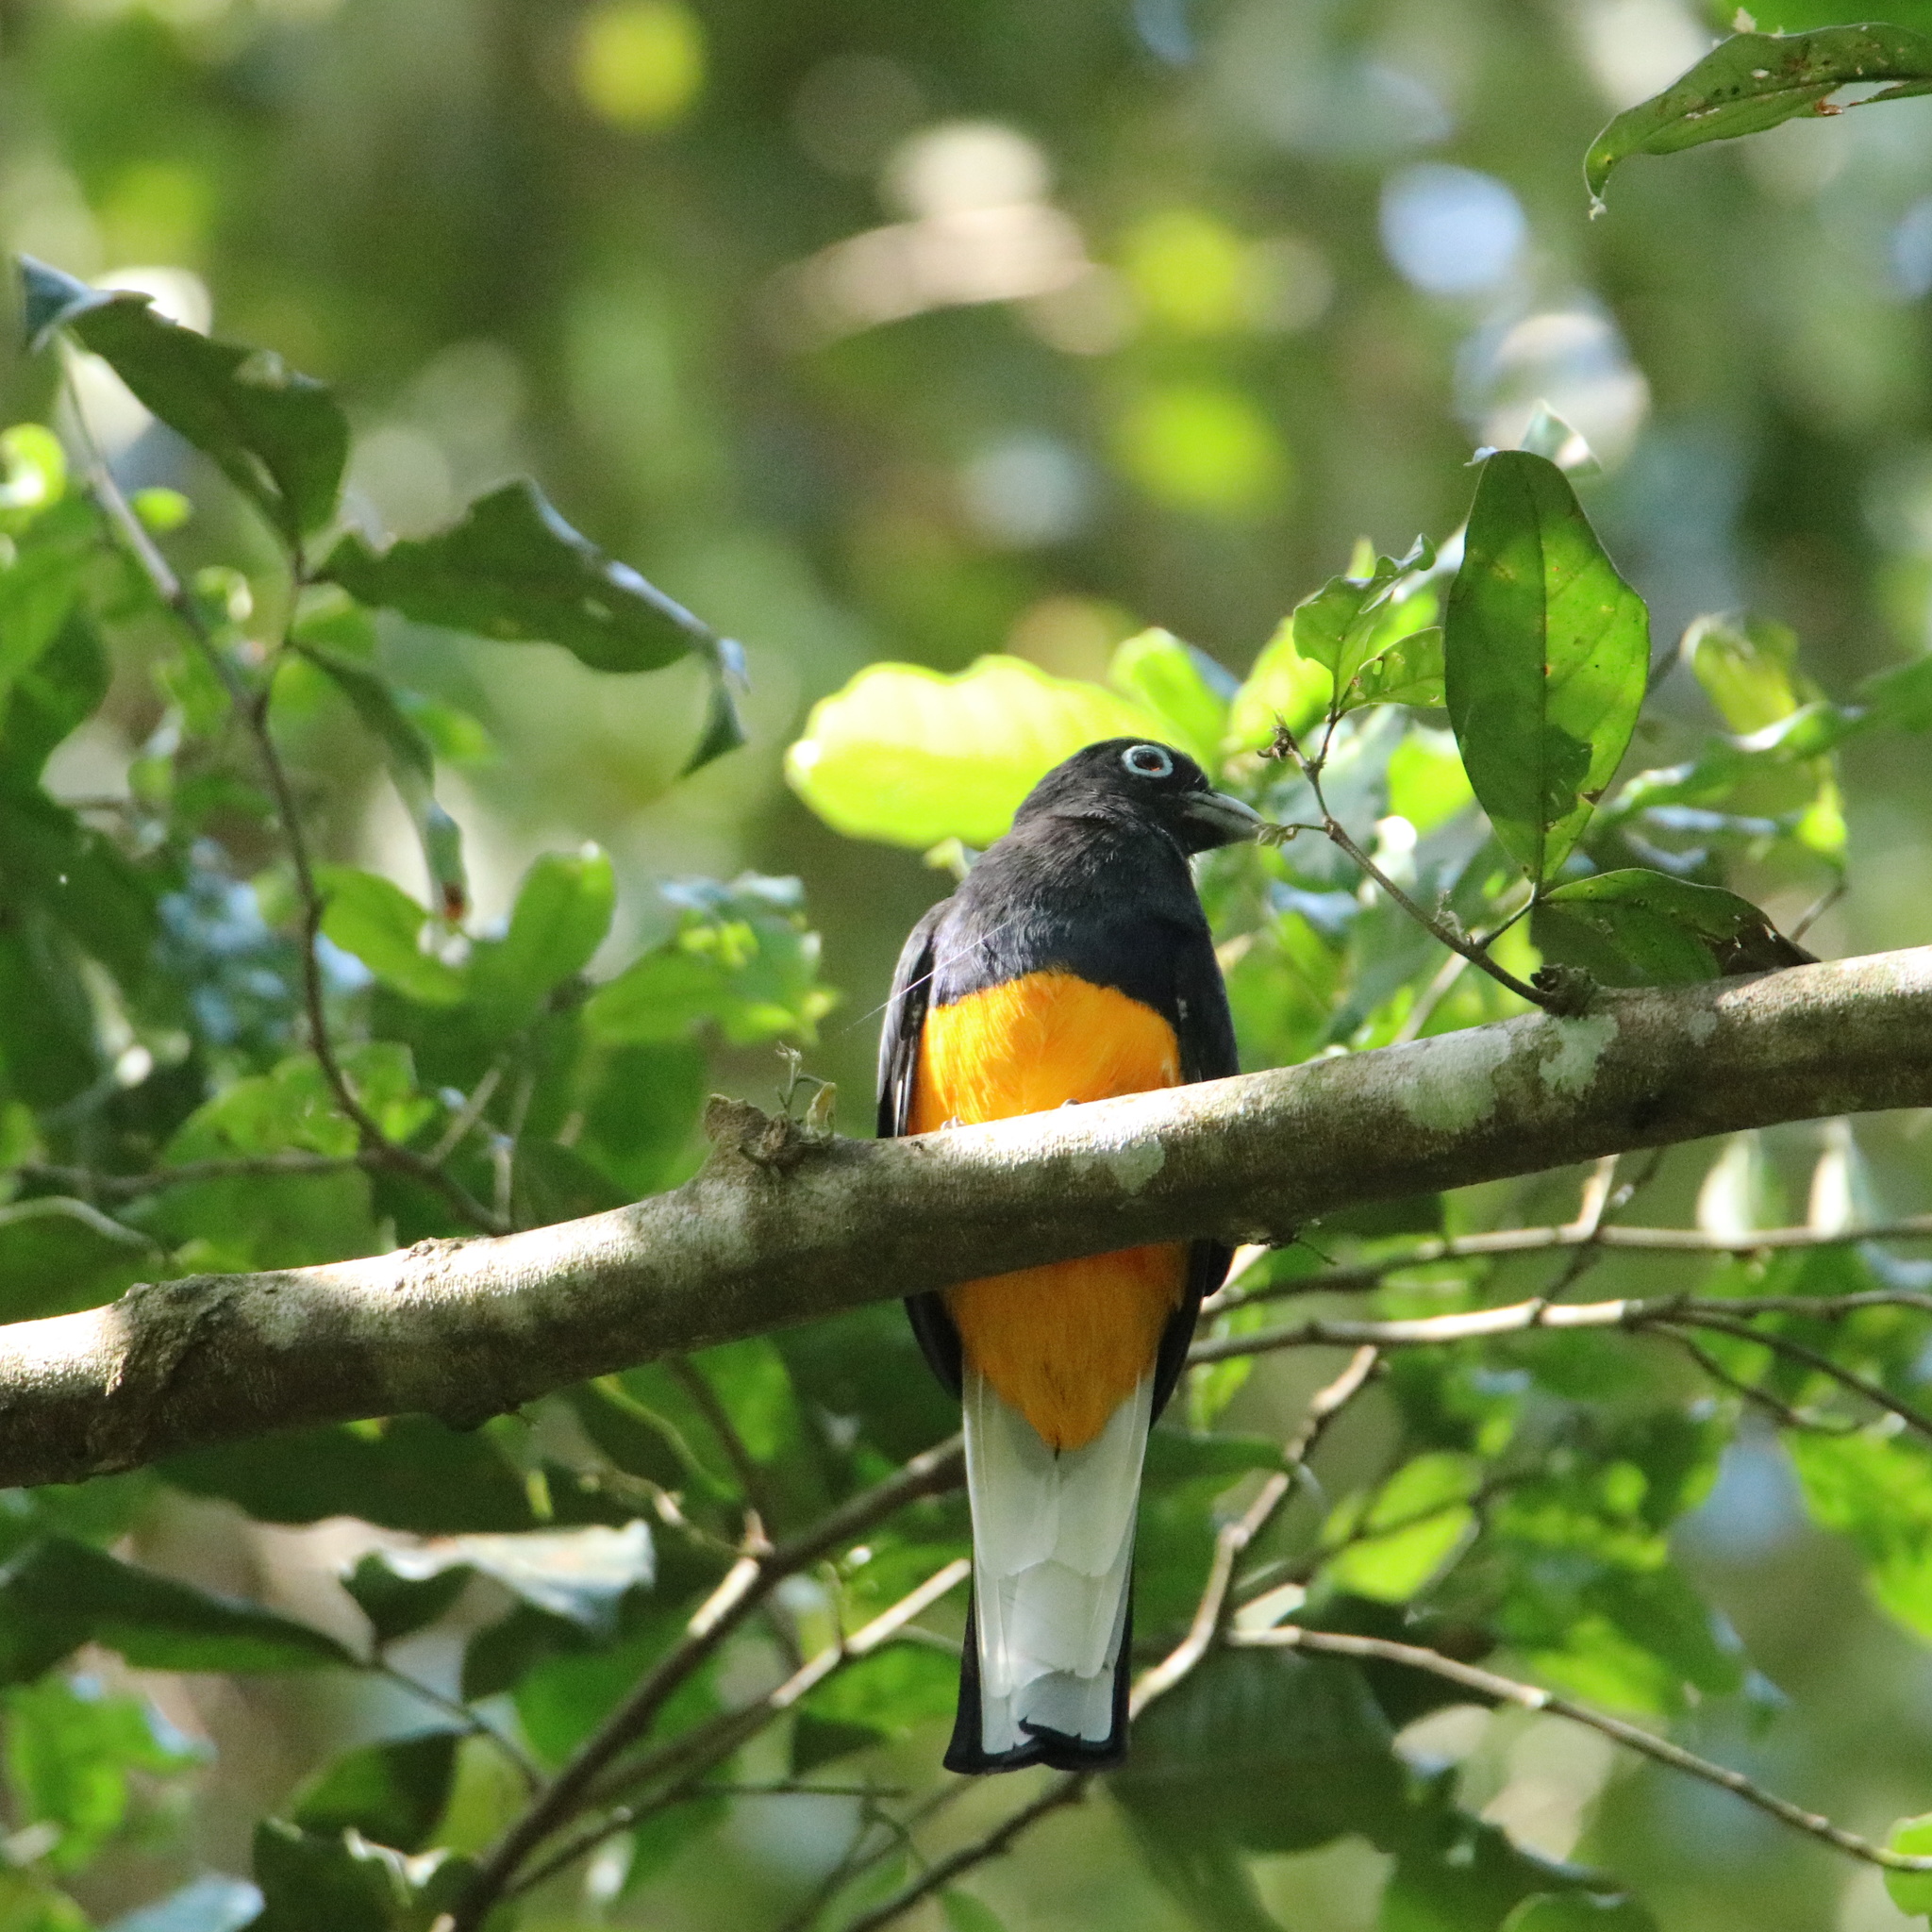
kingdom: Animalia
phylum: Chordata
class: Aves
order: Trogoniformes
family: Trogonidae
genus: Trogon
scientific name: Trogon chionurus
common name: White-tailed trogon
